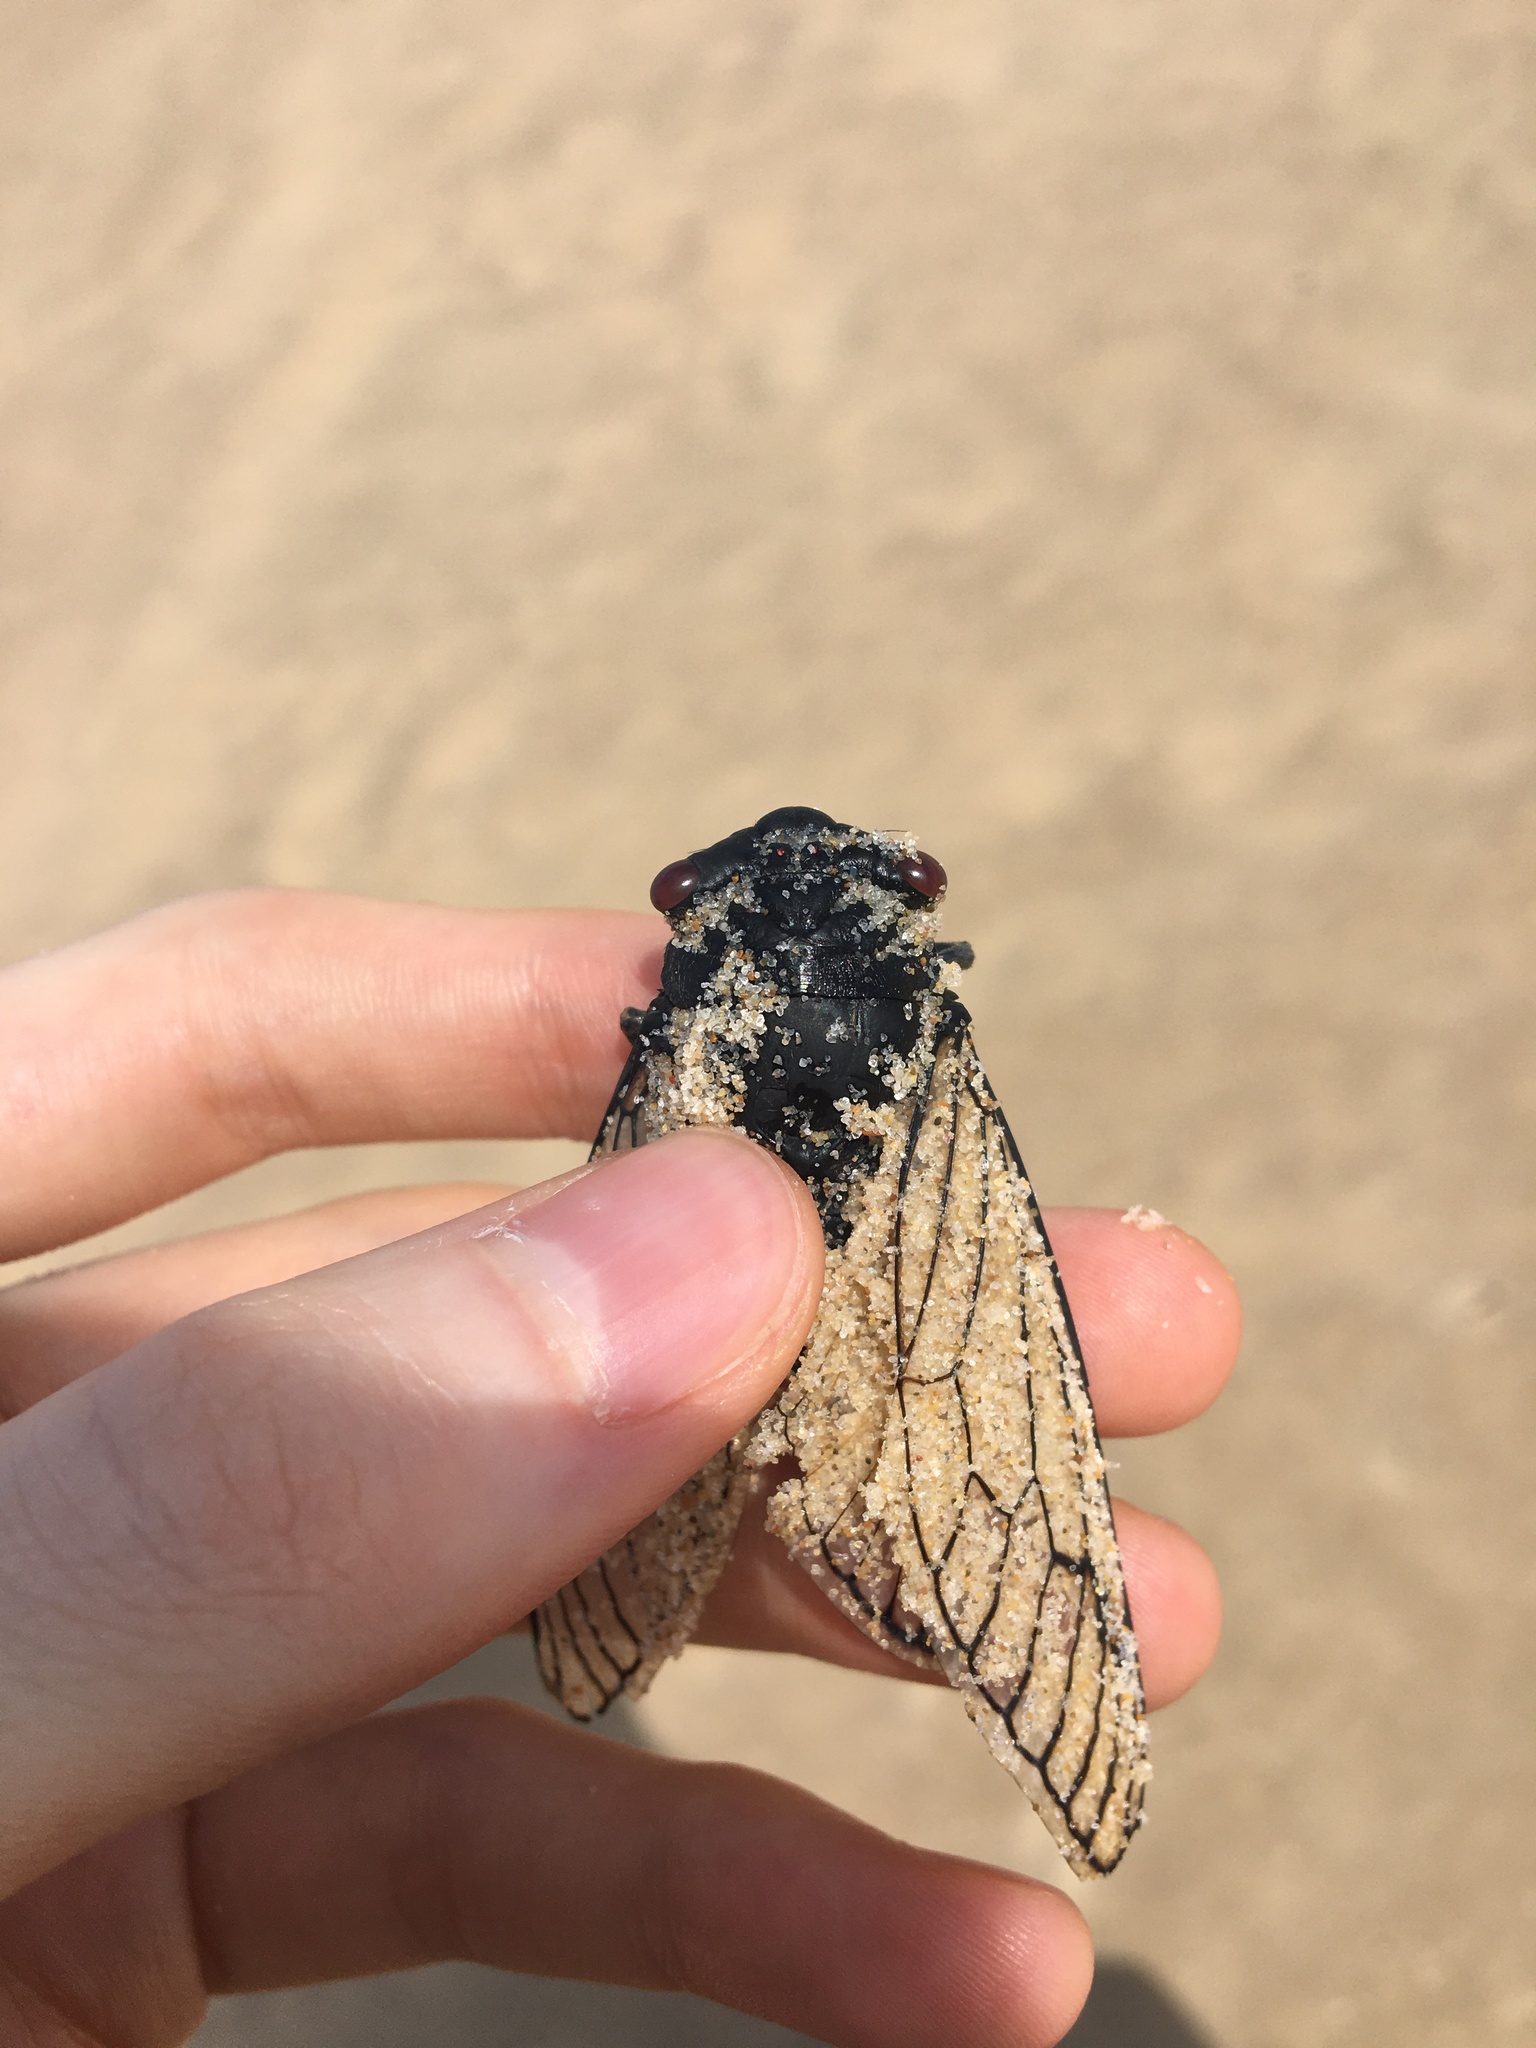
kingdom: Animalia
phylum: Arthropoda
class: Insecta
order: Hemiptera
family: Cicadidae
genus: Psaltoda
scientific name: Psaltoda moerens
